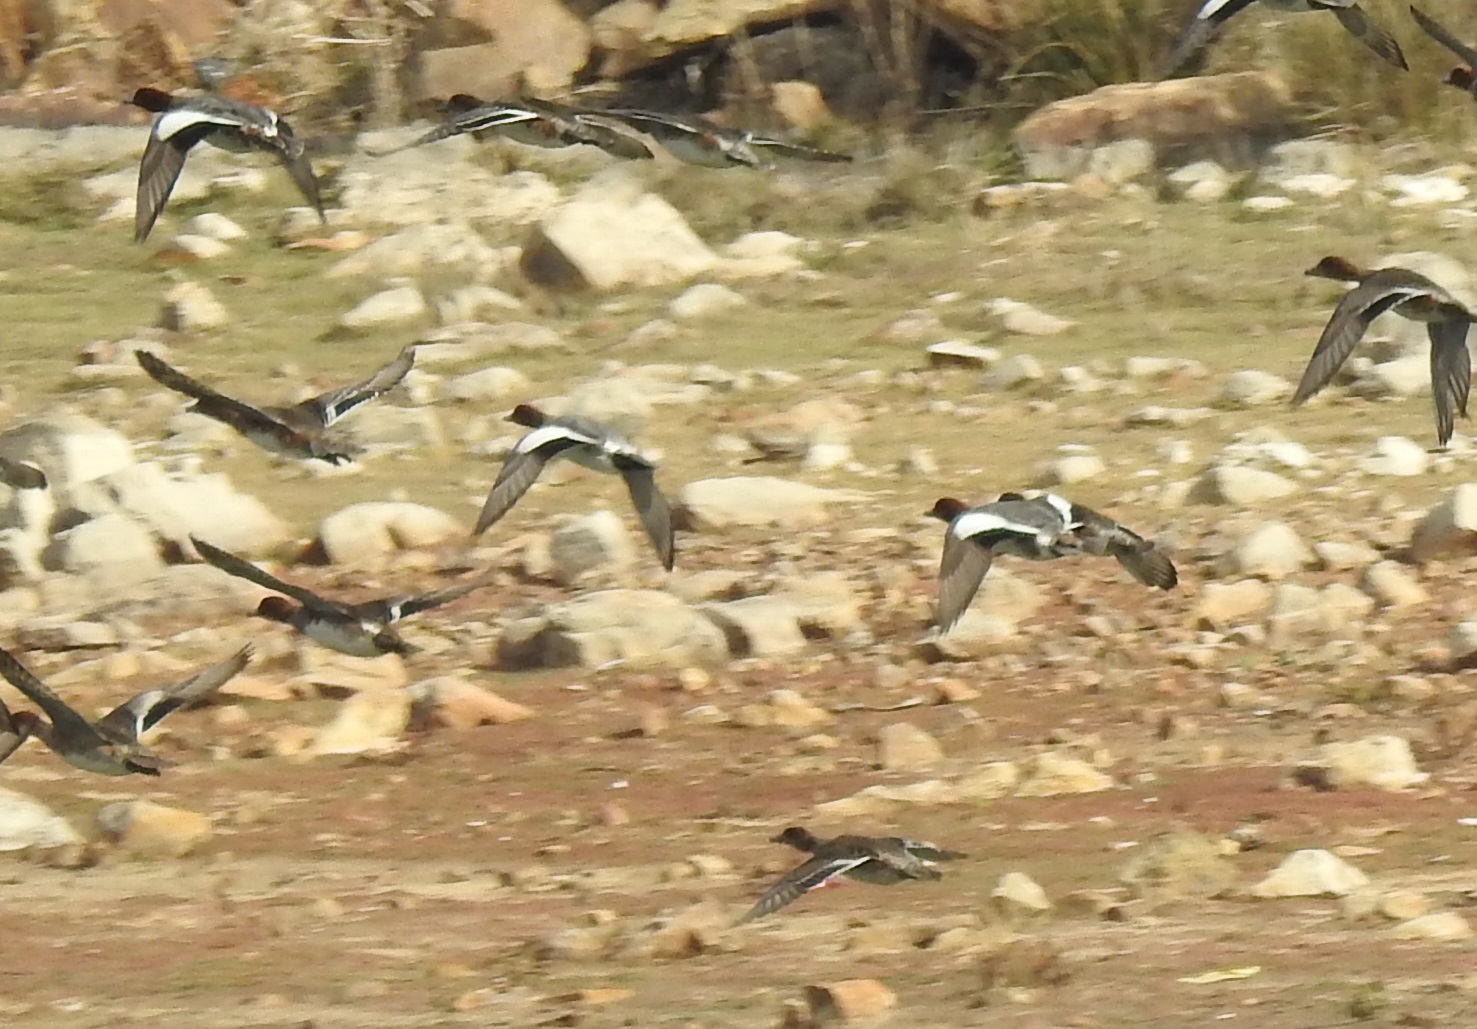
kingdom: Animalia
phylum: Chordata
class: Aves
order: Anseriformes
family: Anatidae
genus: Mareca
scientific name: Mareca penelope
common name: Eurasian wigeon
